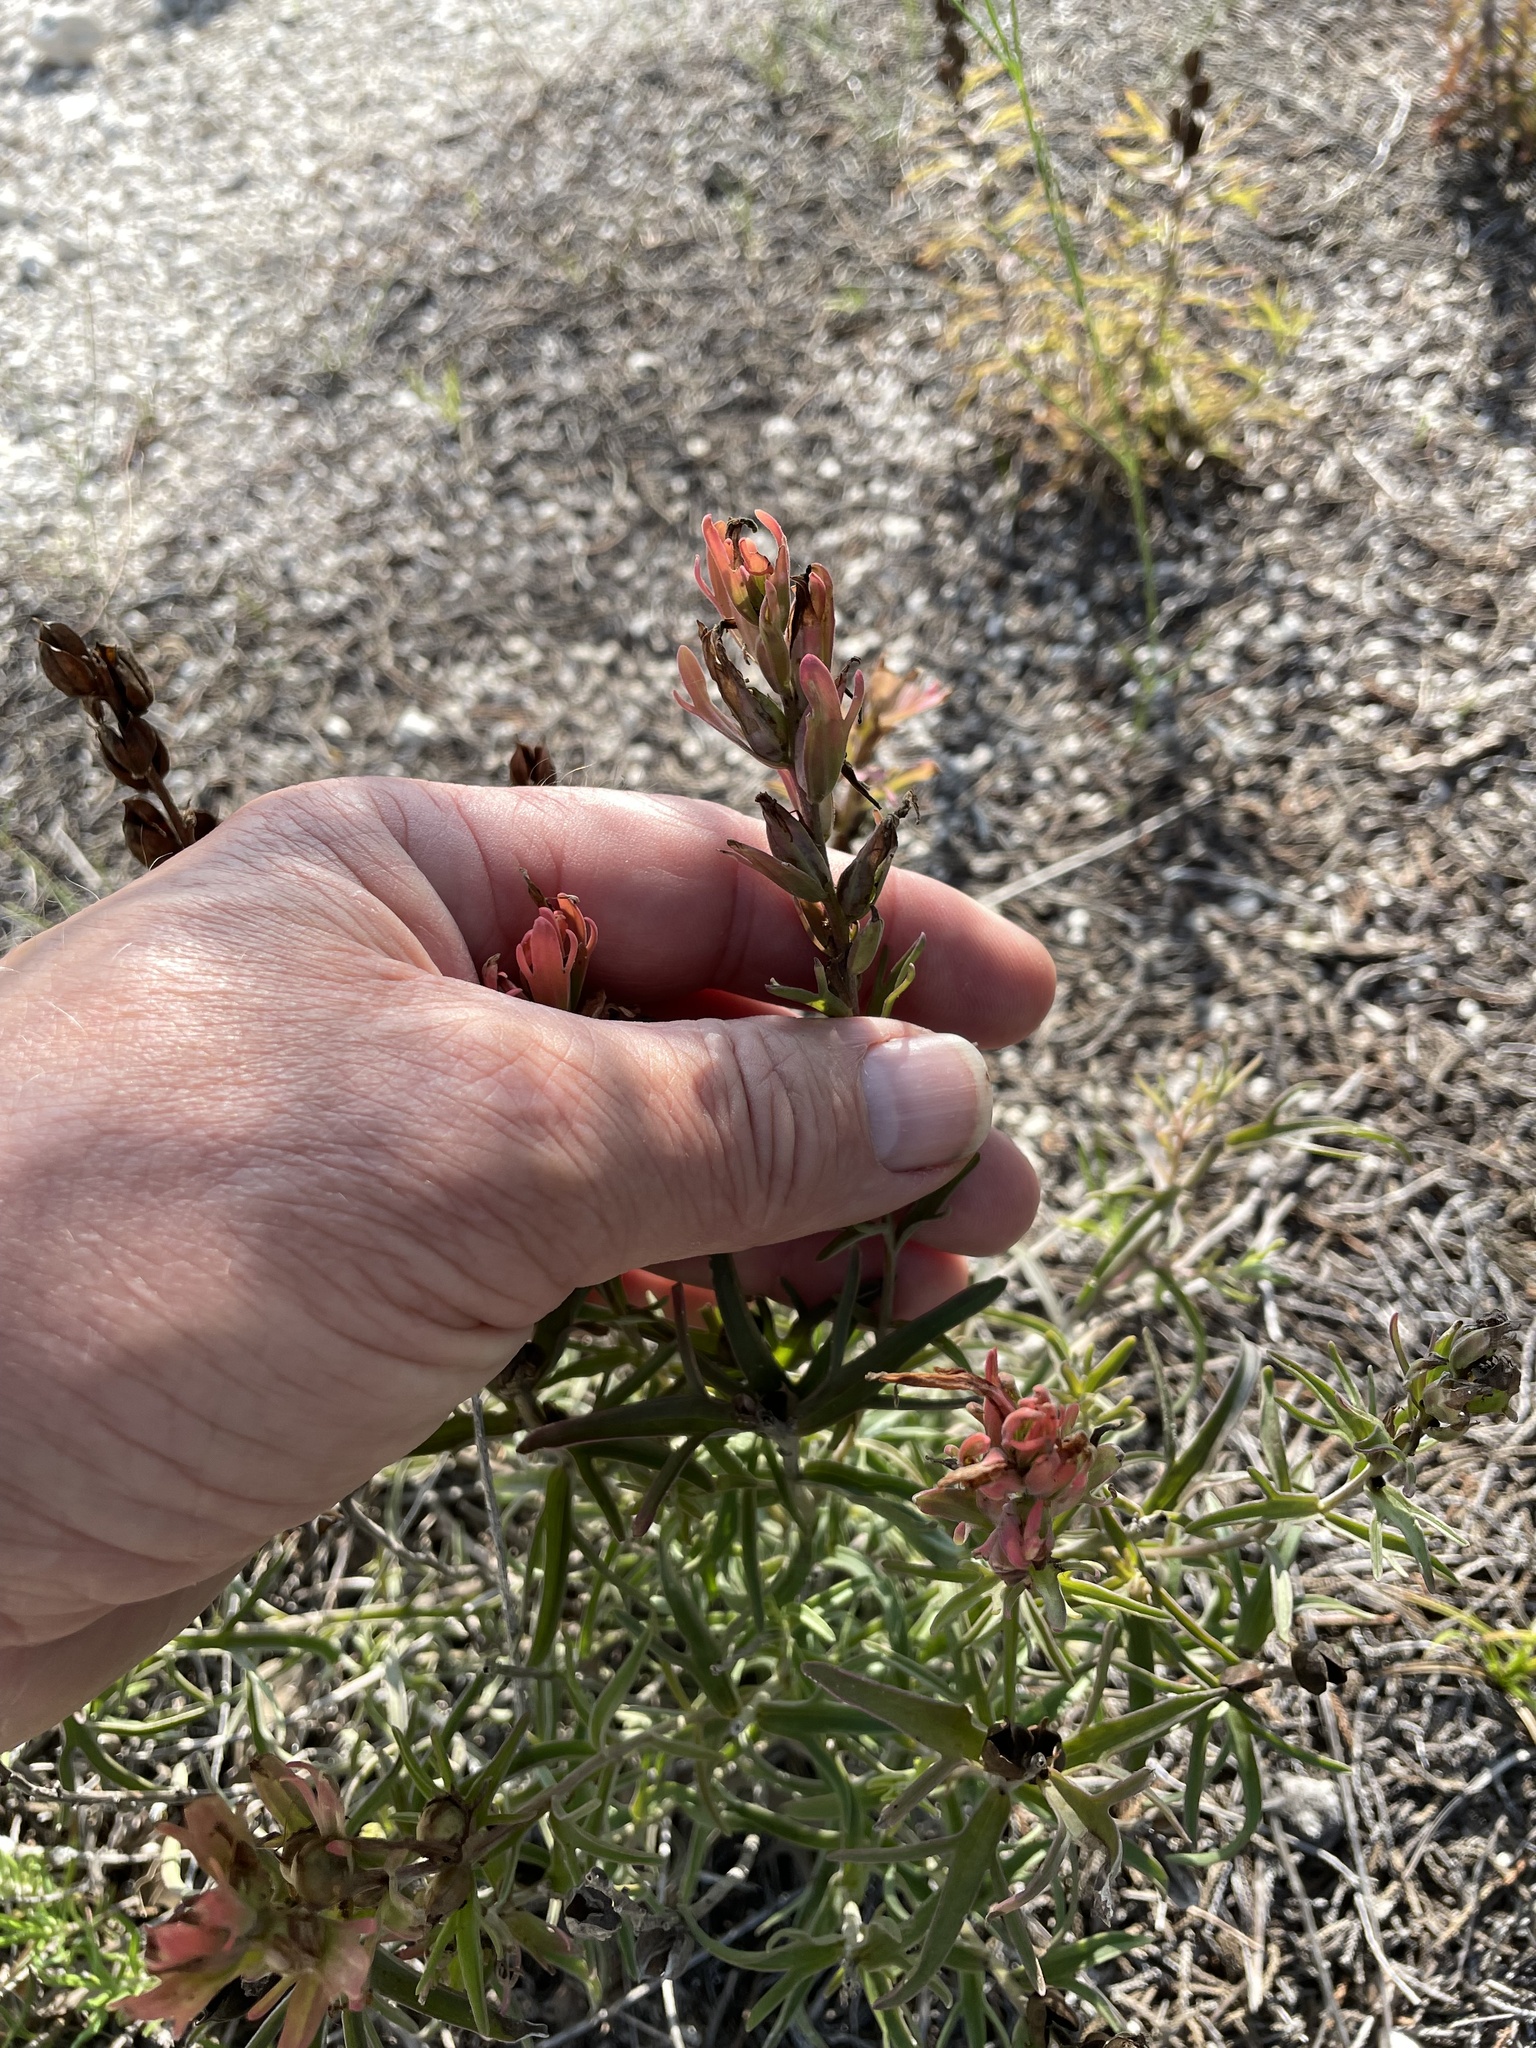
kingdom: Plantae
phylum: Tracheophyta
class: Magnoliopsida
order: Lamiales
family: Orobanchaceae
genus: Castilleja
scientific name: Castilleja lindheimeri
